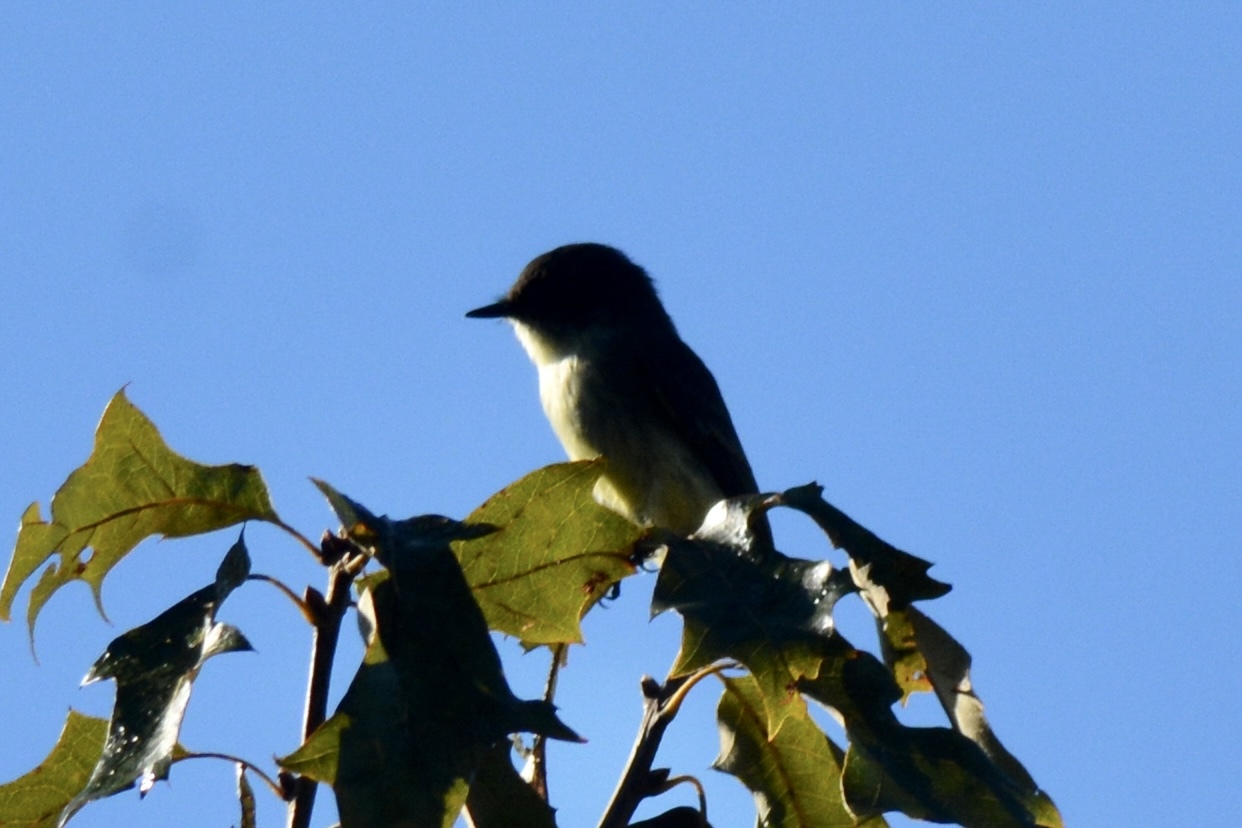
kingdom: Animalia
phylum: Chordata
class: Aves
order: Passeriformes
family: Tyrannidae
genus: Sayornis
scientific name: Sayornis phoebe
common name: Eastern phoebe
